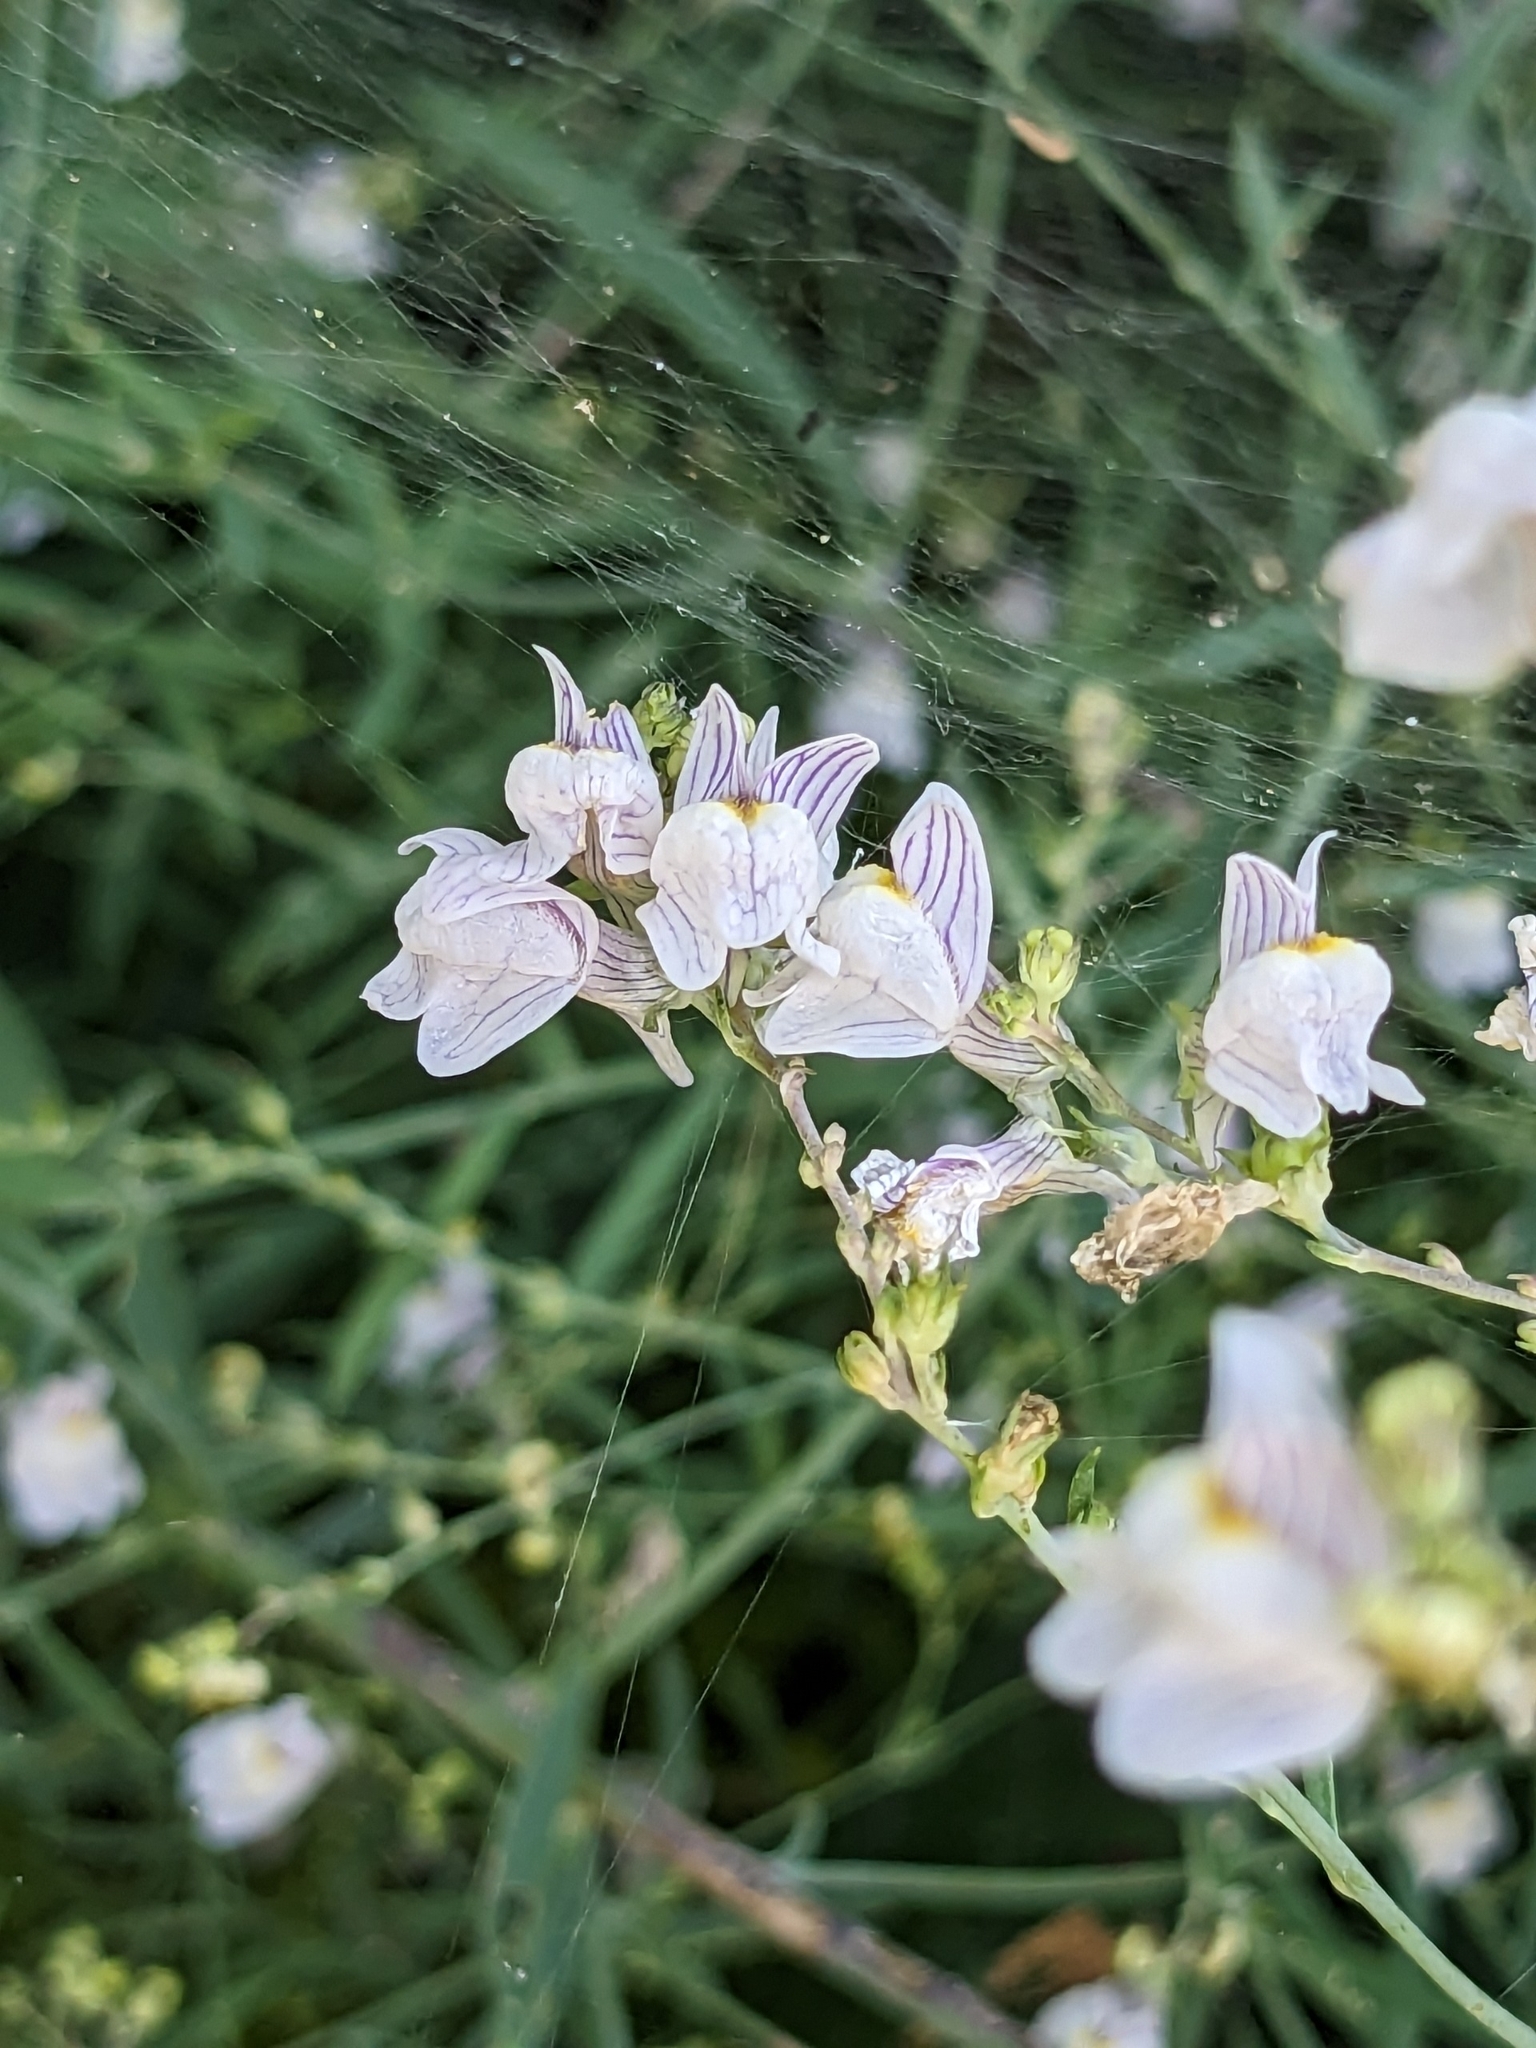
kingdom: Plantae
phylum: Tracheophyta
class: Magnoliopsida
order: Lamiales
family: Plantaginaceae
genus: Linaria
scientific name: Linaria repens
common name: Pale toadflax
